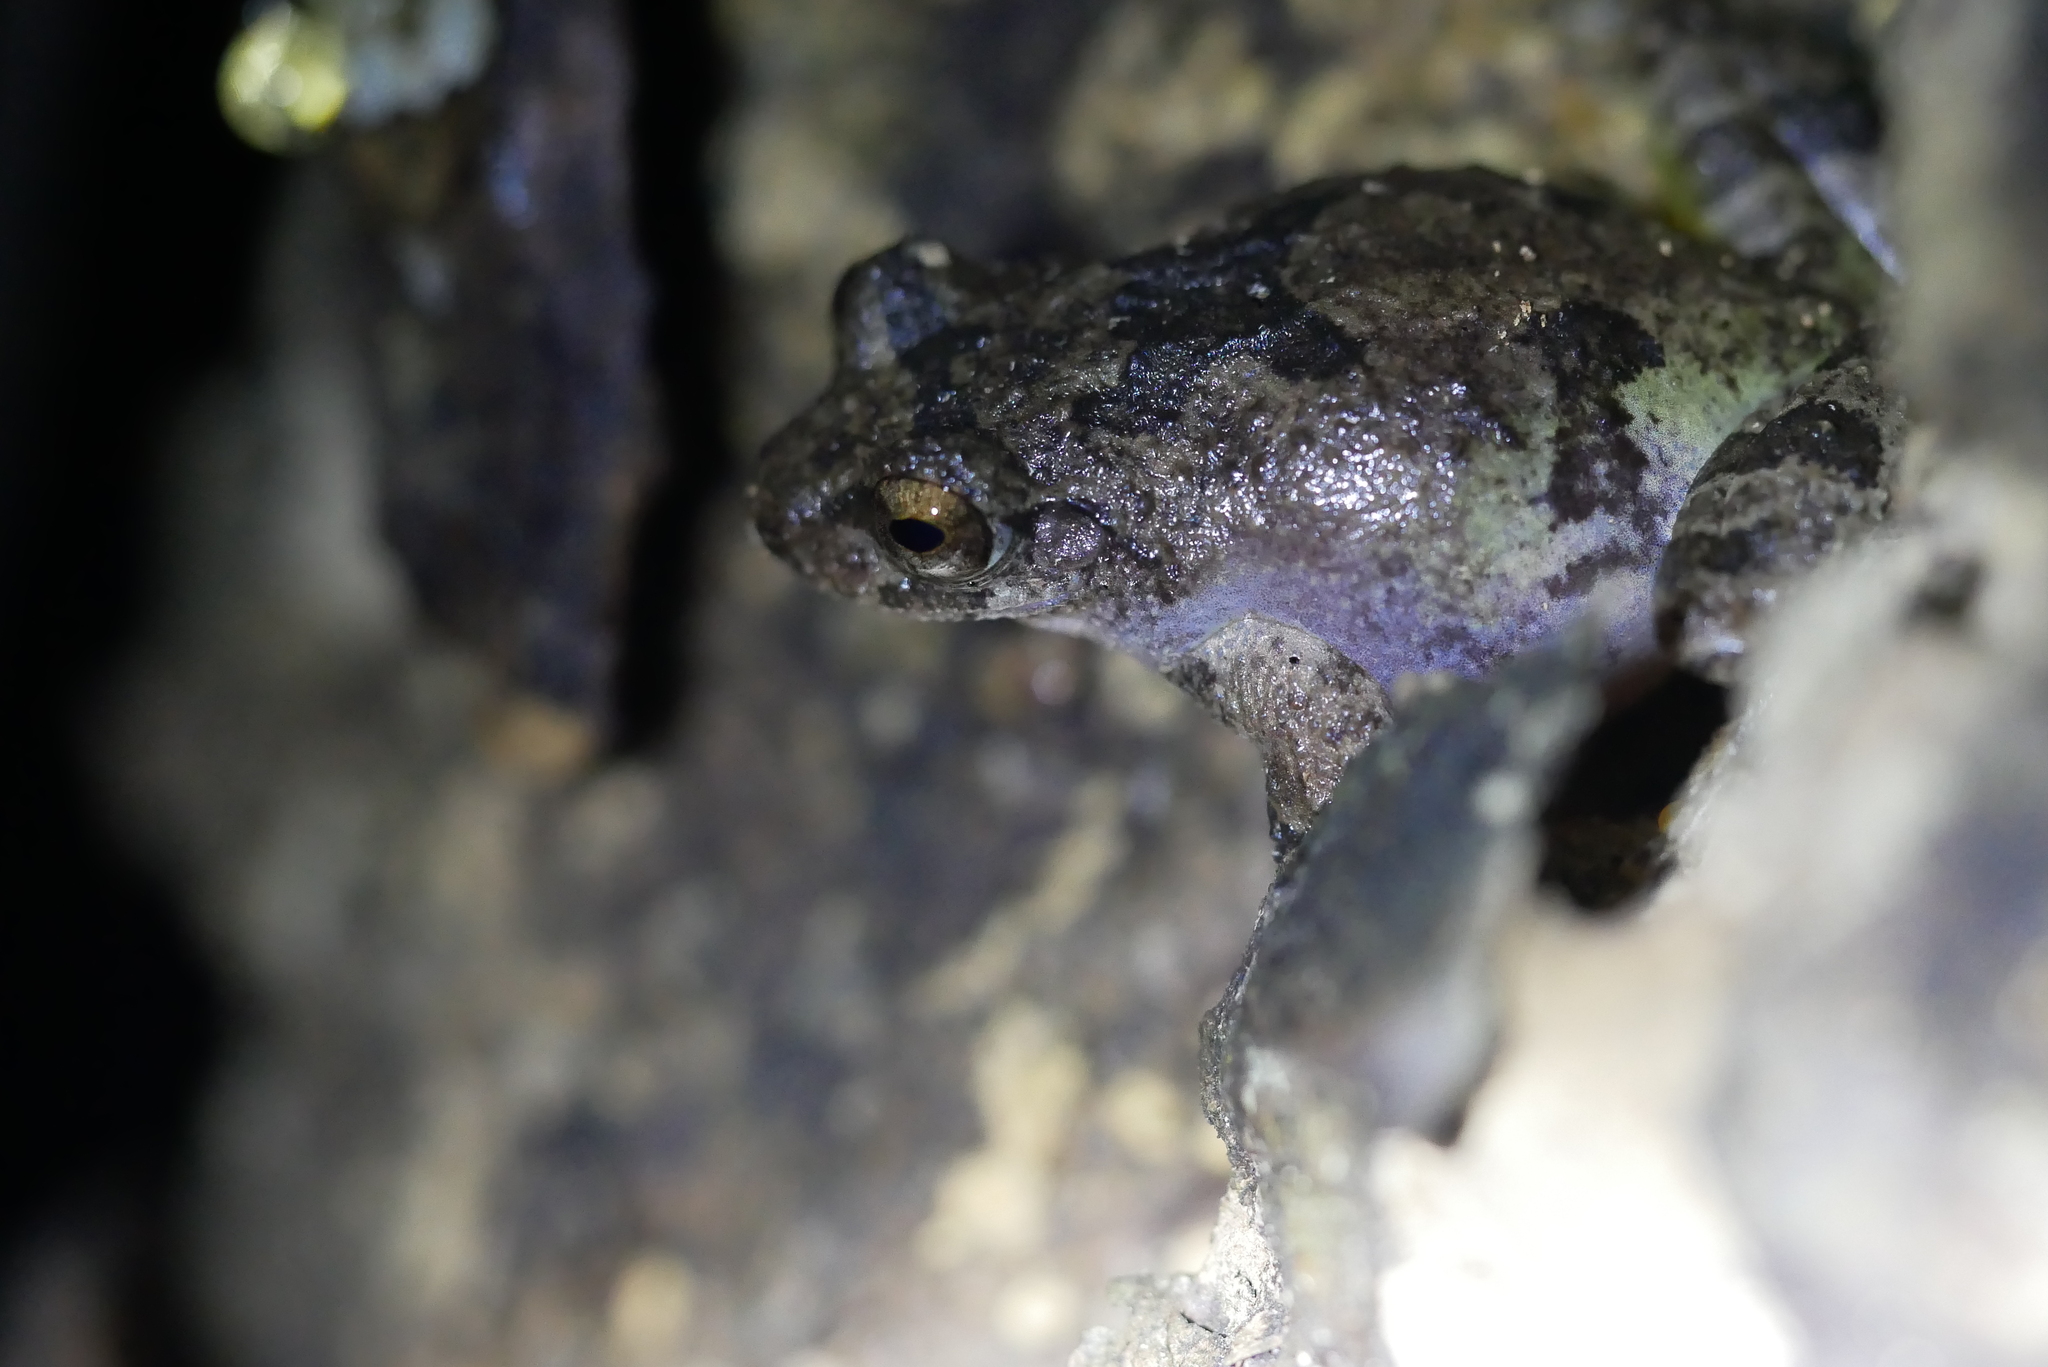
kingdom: Animalia
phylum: Chordata
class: Amphibia
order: Anura
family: Rhacophoridae
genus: Kurixalus
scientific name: Kurixalus eiffingeri
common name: Eiffinger’s treefrog
